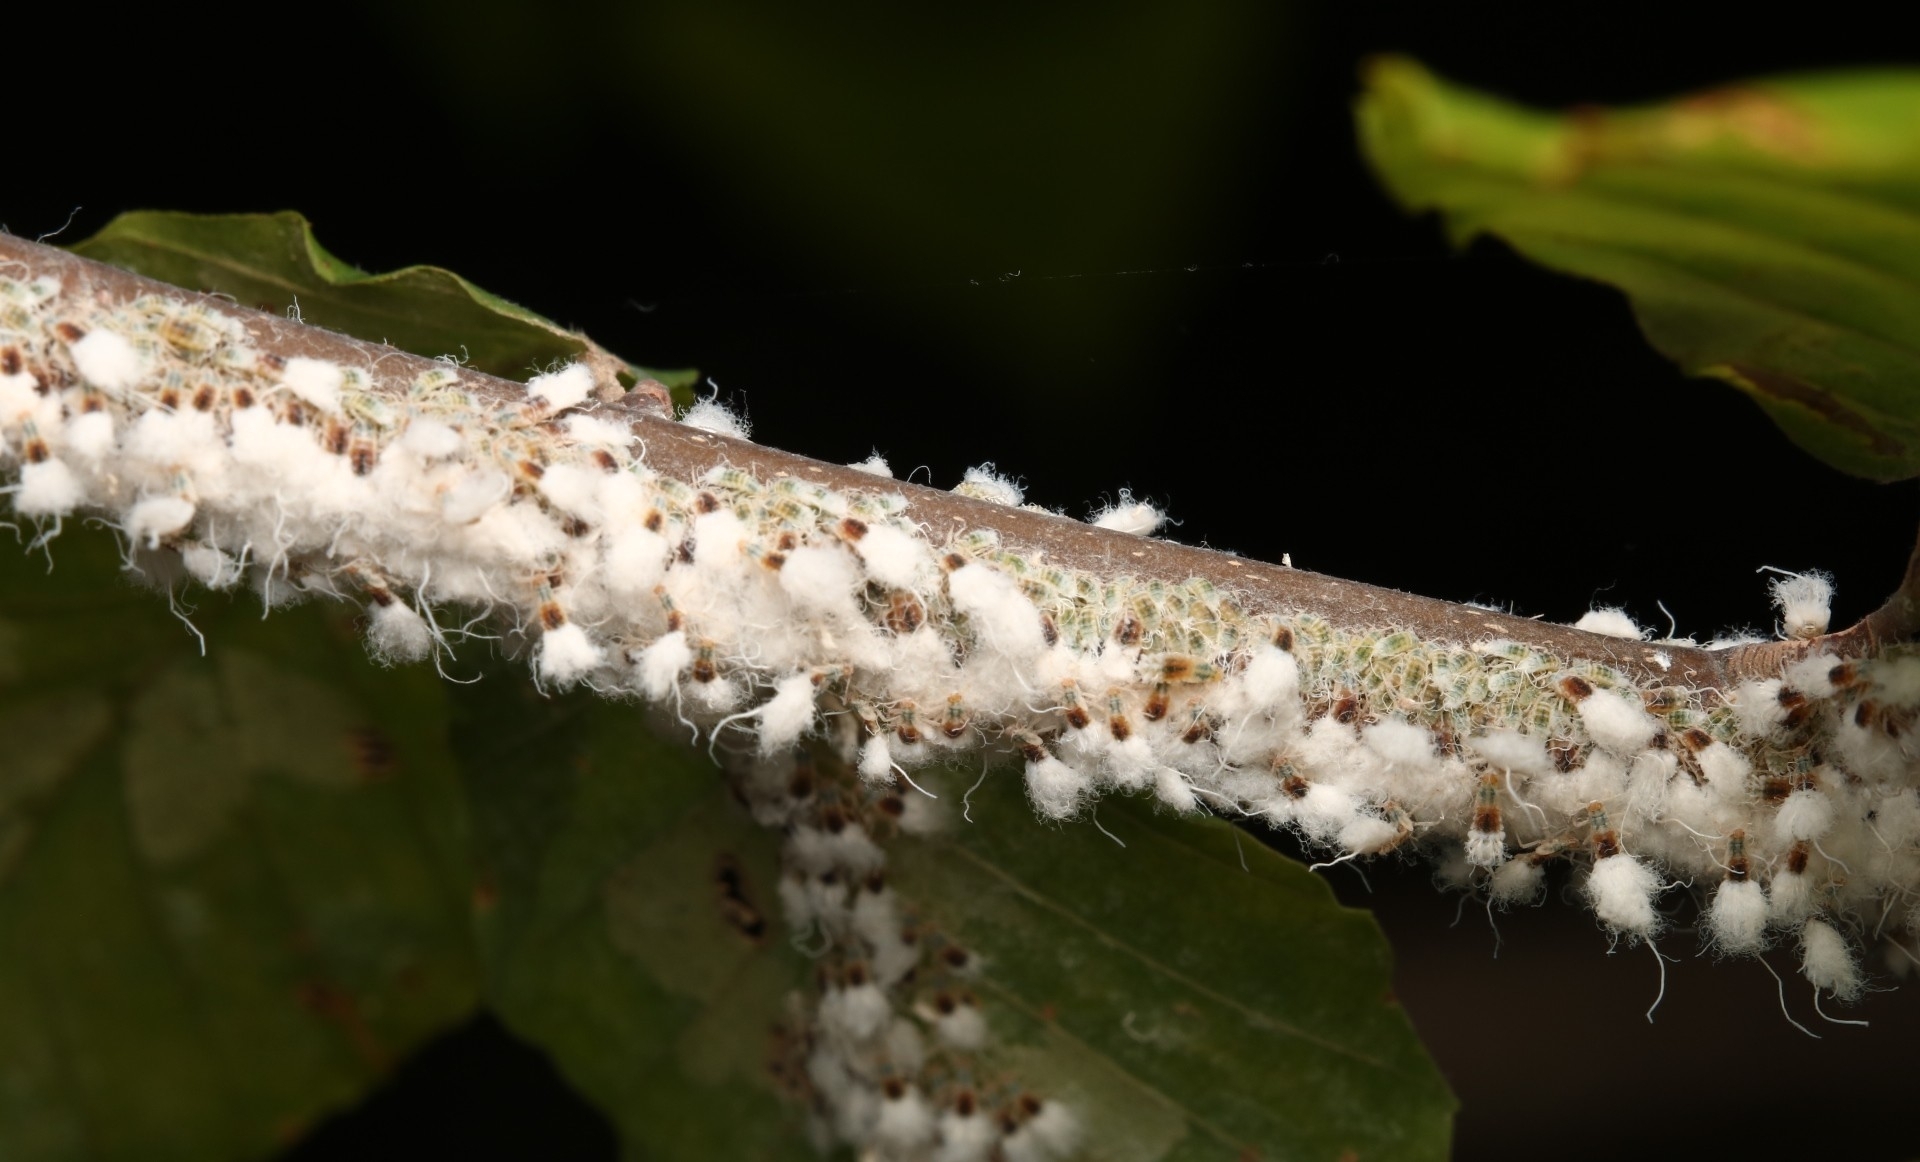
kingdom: Animalia
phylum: Arthropoda
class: Insecta
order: Hemiptera
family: Aphididae
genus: Grylloprociphilus
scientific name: Grylloprociphilus imbricator
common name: Beech blight aphid
